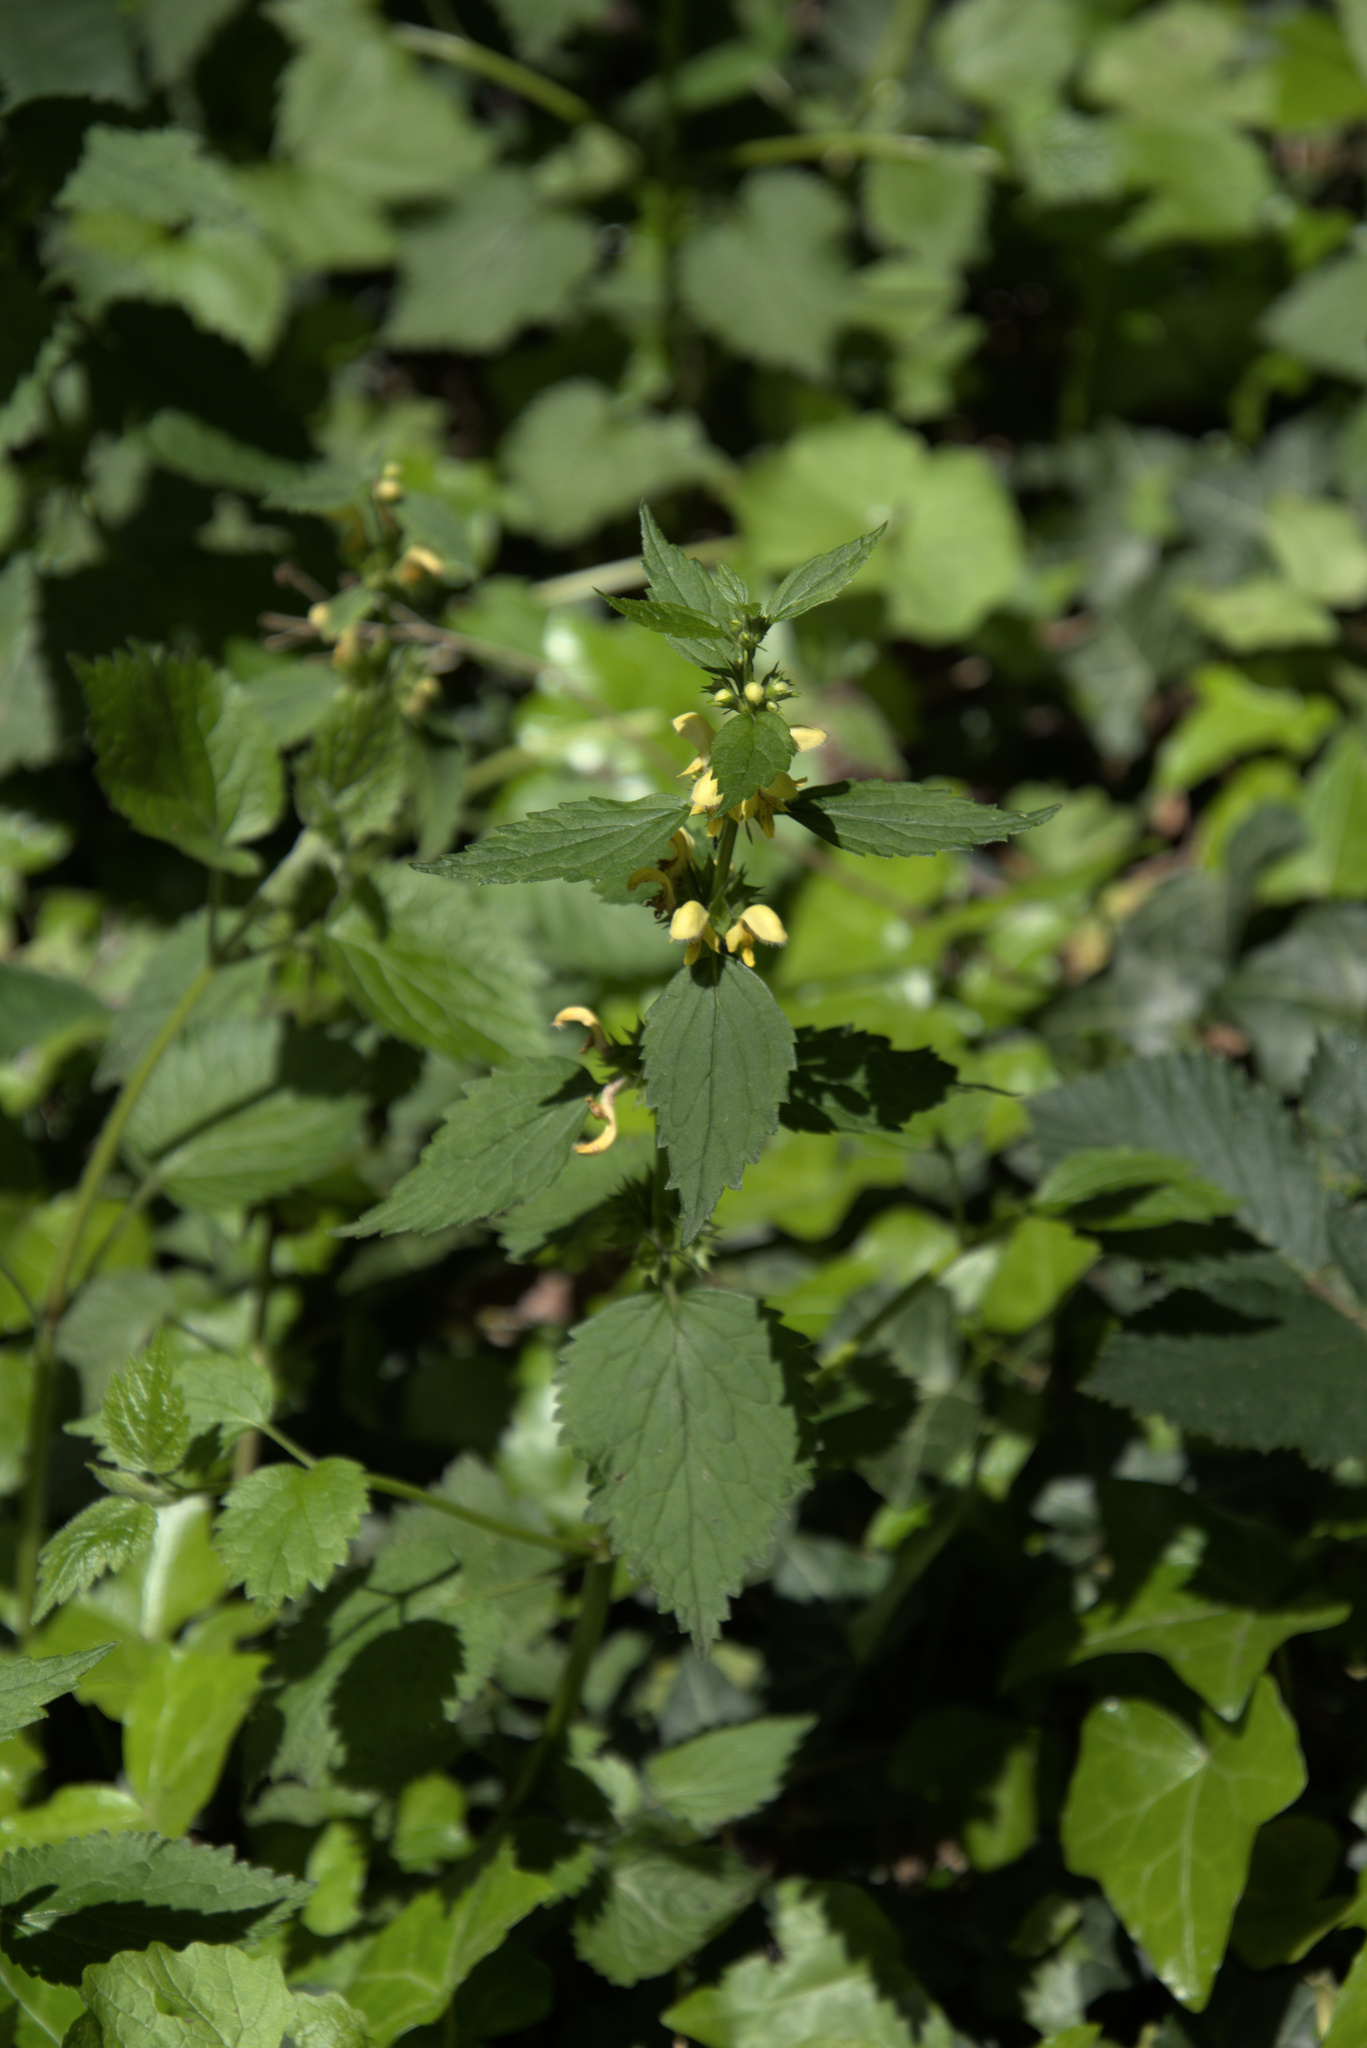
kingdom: Plantae
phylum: Tracheophyta
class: Magnoliopsida
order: Lamiales
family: Lamiaceae
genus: Lamium
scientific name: Lamium galeobdolon
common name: Yellow archangel
